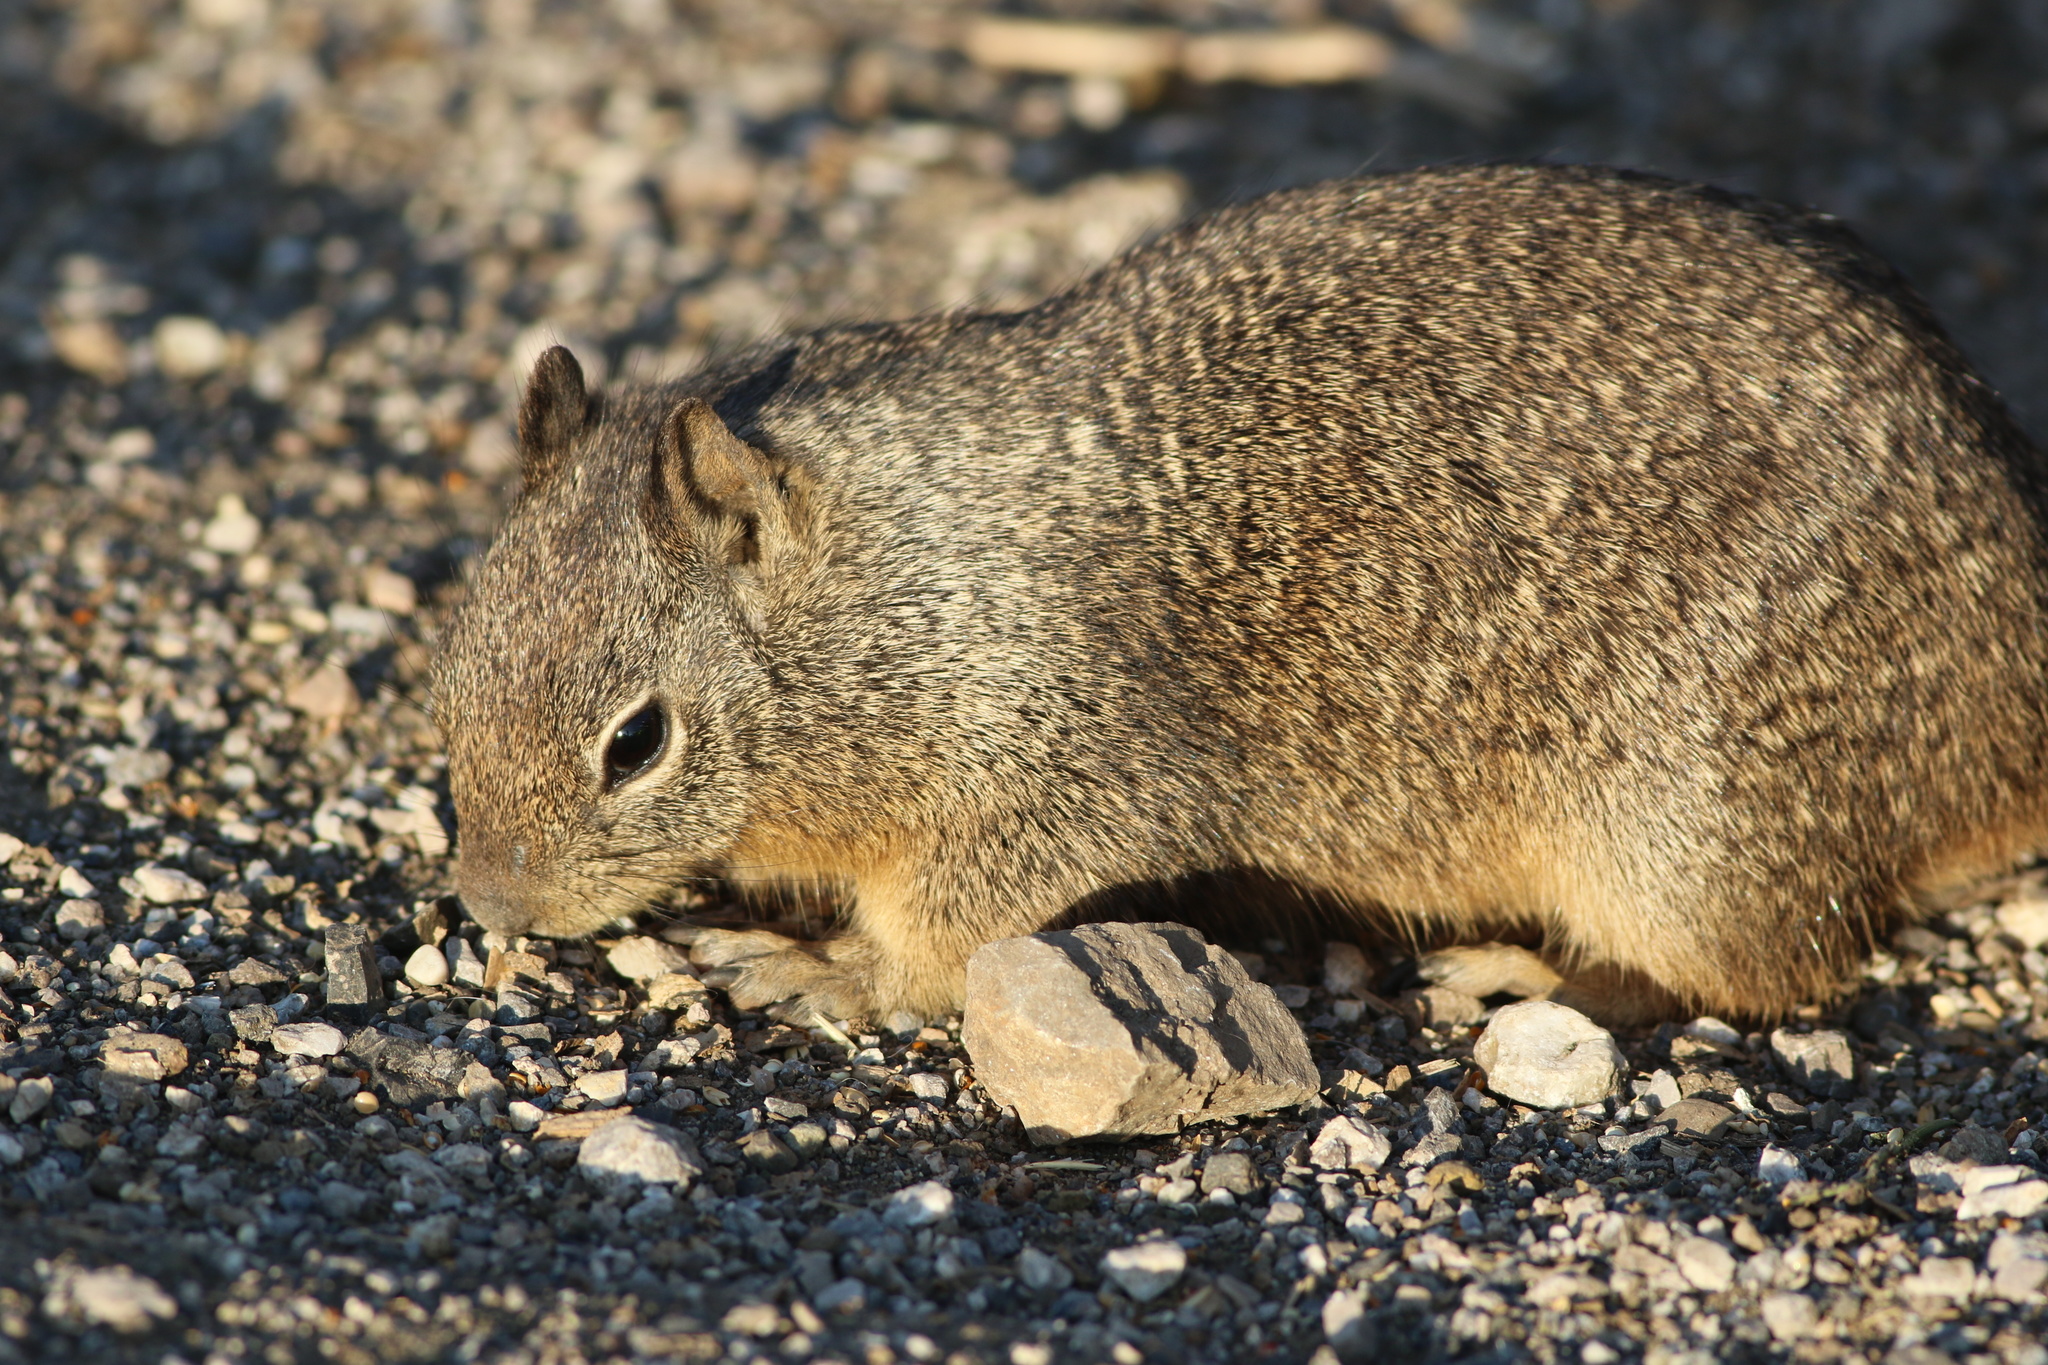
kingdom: Animalia
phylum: Chordata
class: Mammalia
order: Rodentia
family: Sciuridae
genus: Otospermophilus
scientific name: Otospermophilus beecheyi
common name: California ground squirrel
